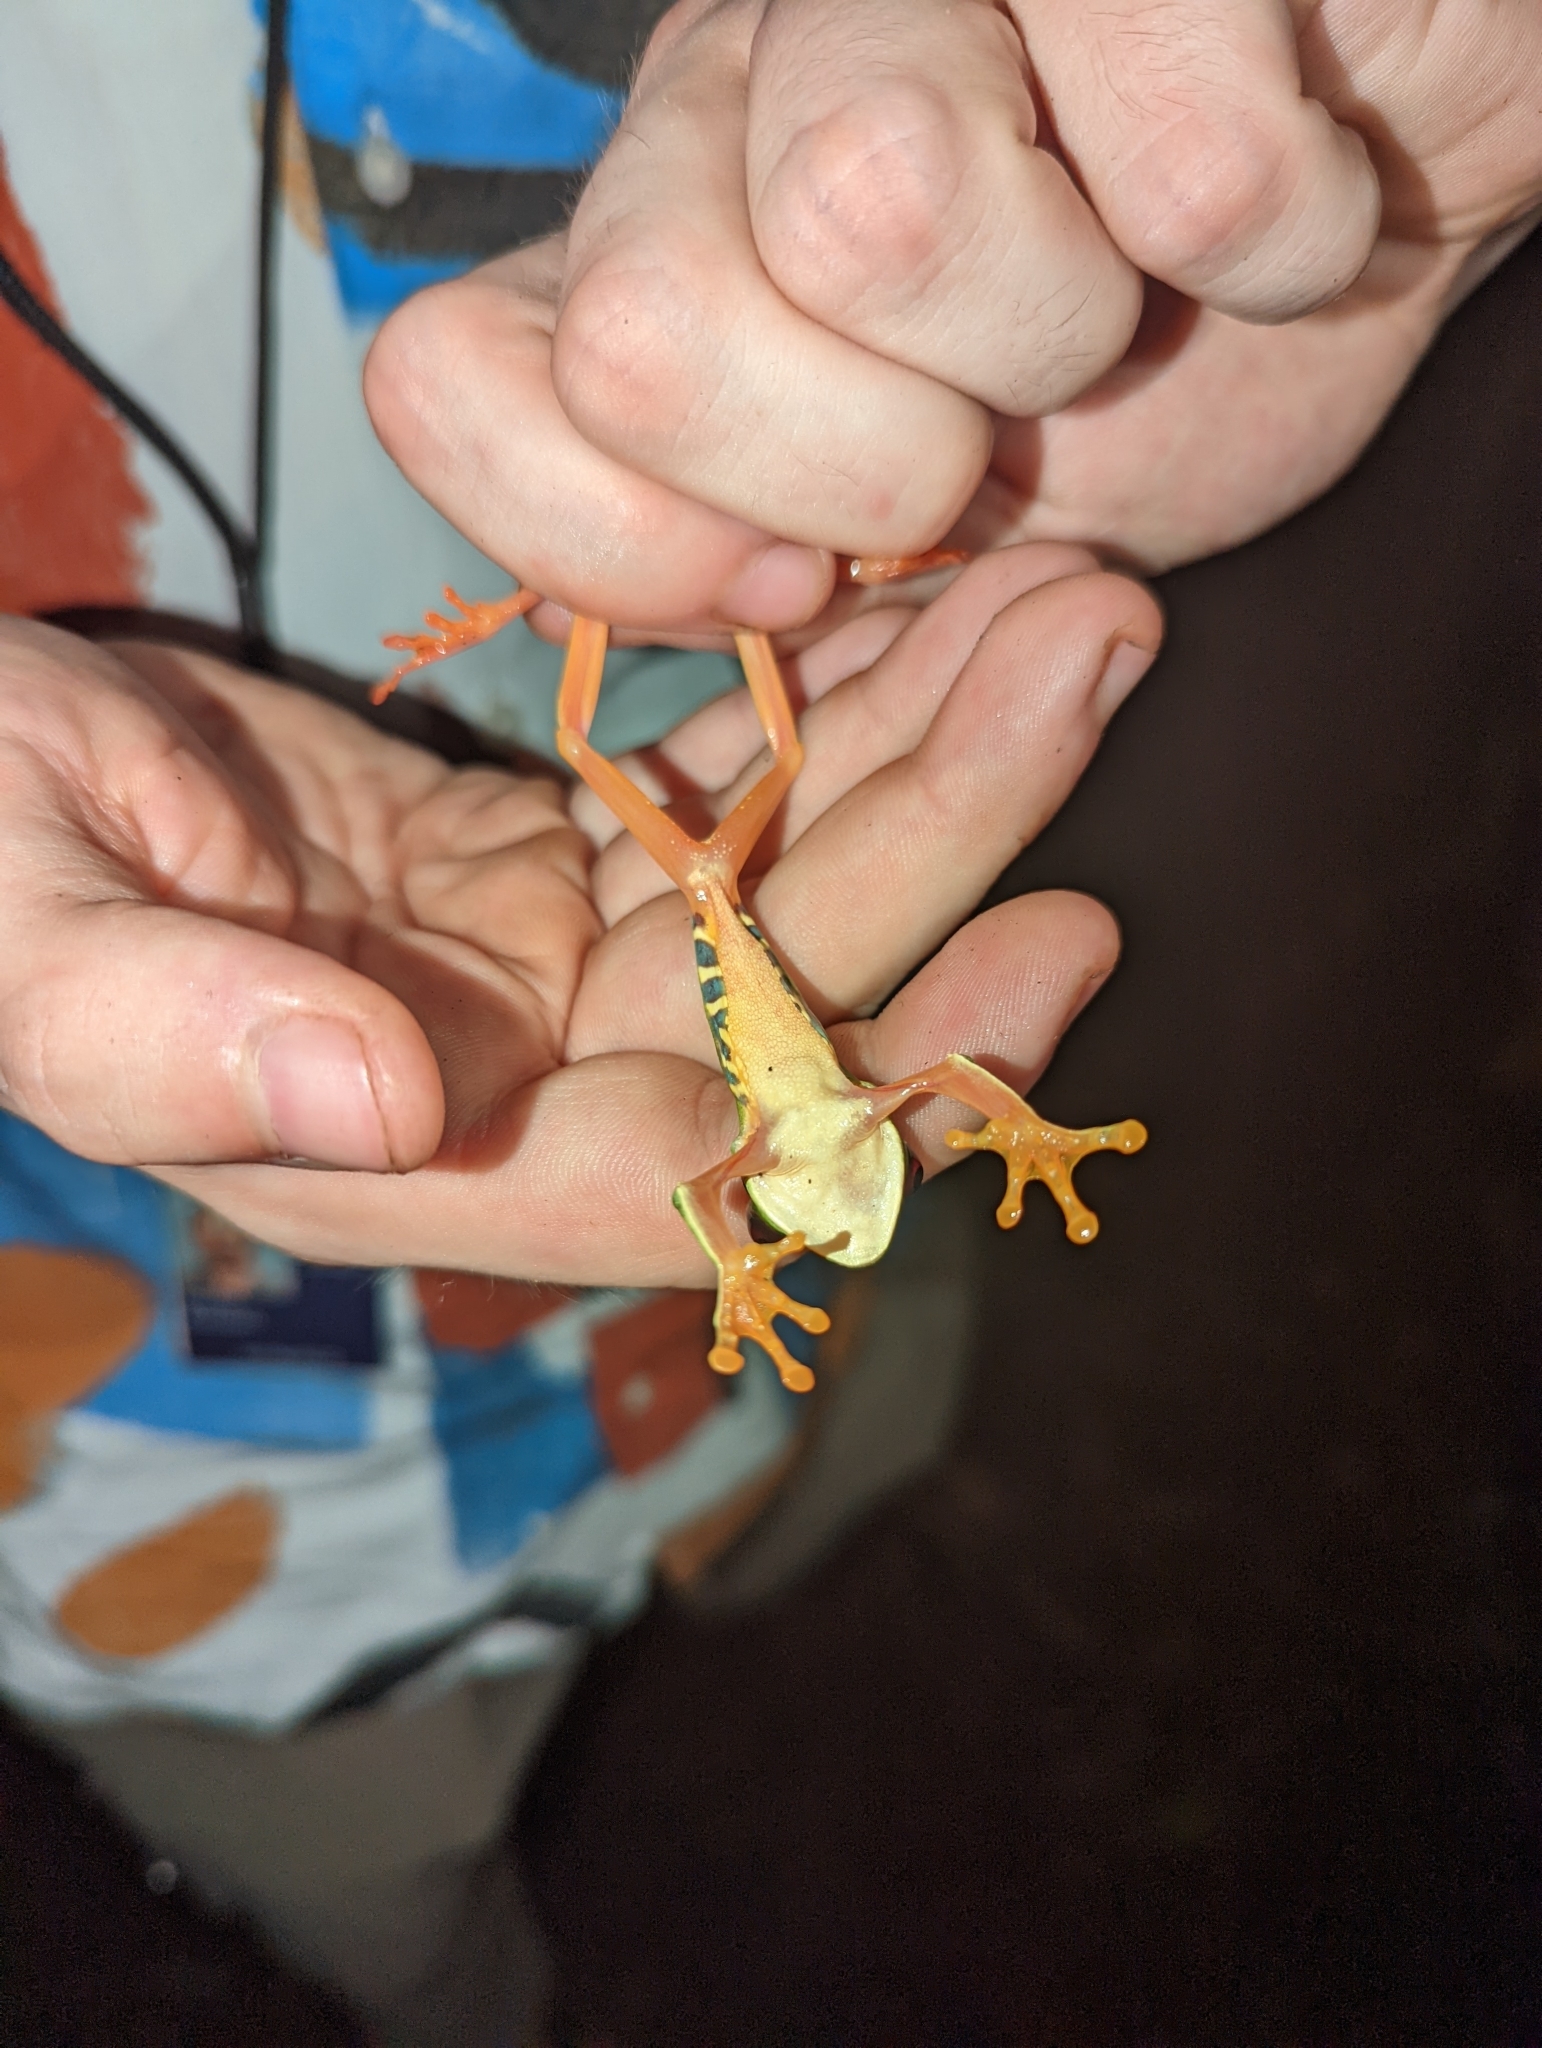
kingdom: Animalia
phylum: Chordata
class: Amphibia
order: Anura
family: Phyllomedusidae
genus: Agalychnis
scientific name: Agalychnis callidryas
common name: Red-eyed treefrog
